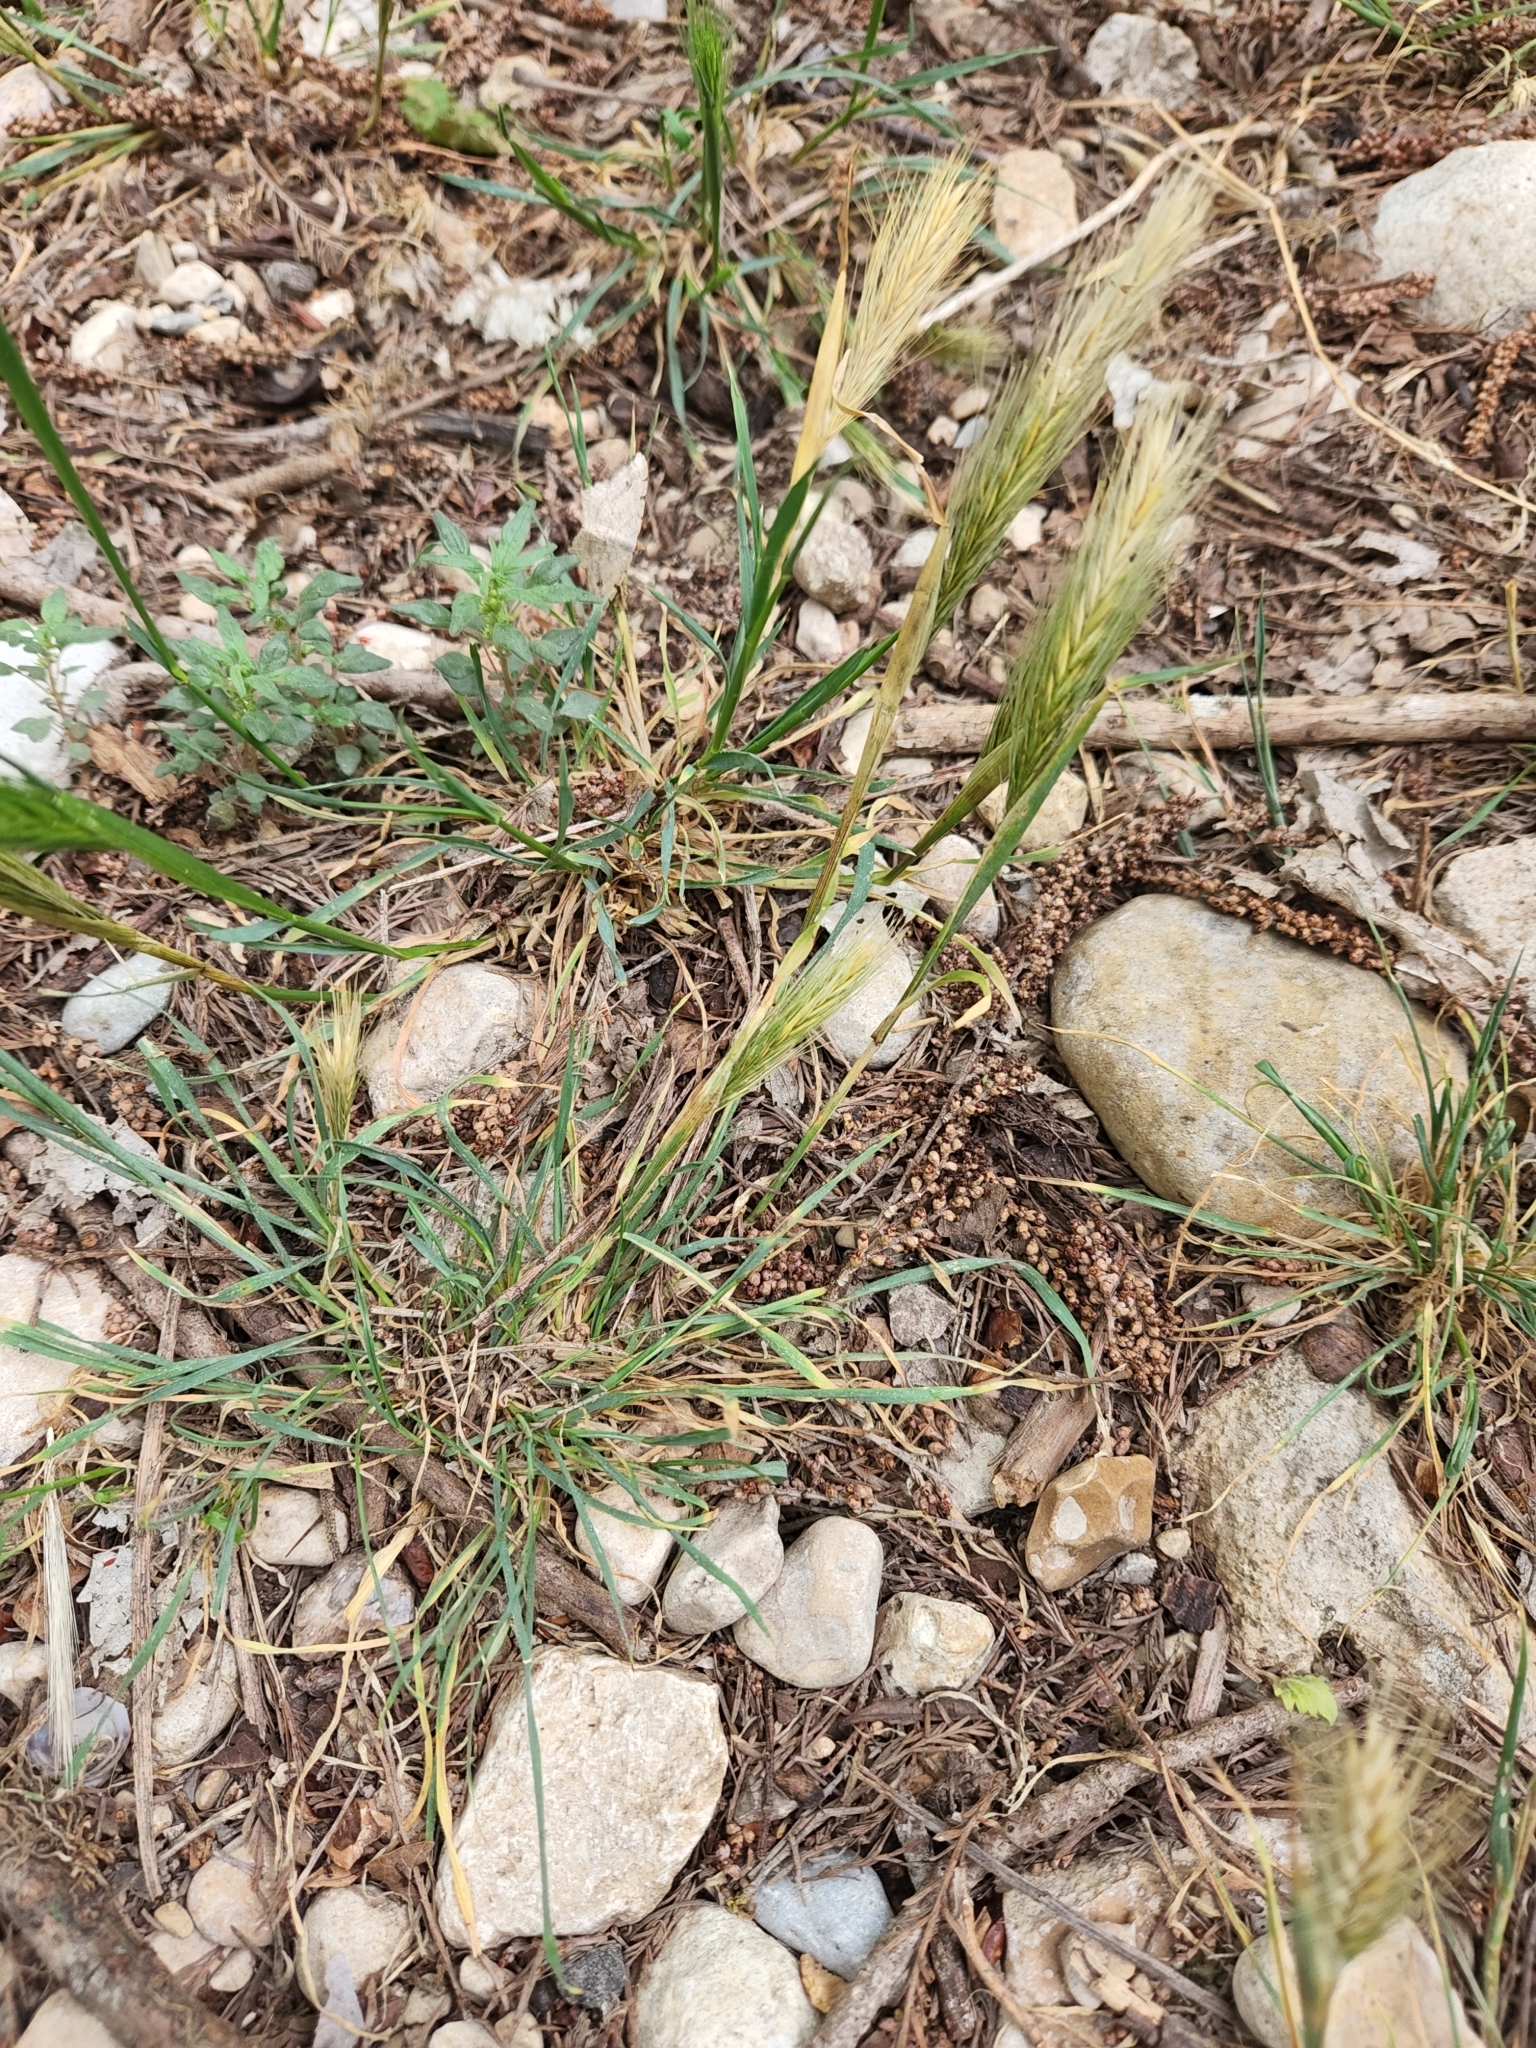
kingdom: Plantae
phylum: Tracheophyta
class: Liliopsida
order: Poales
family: Poaceae
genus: Hordeum
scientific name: Hordeum pusillum
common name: Little barley
